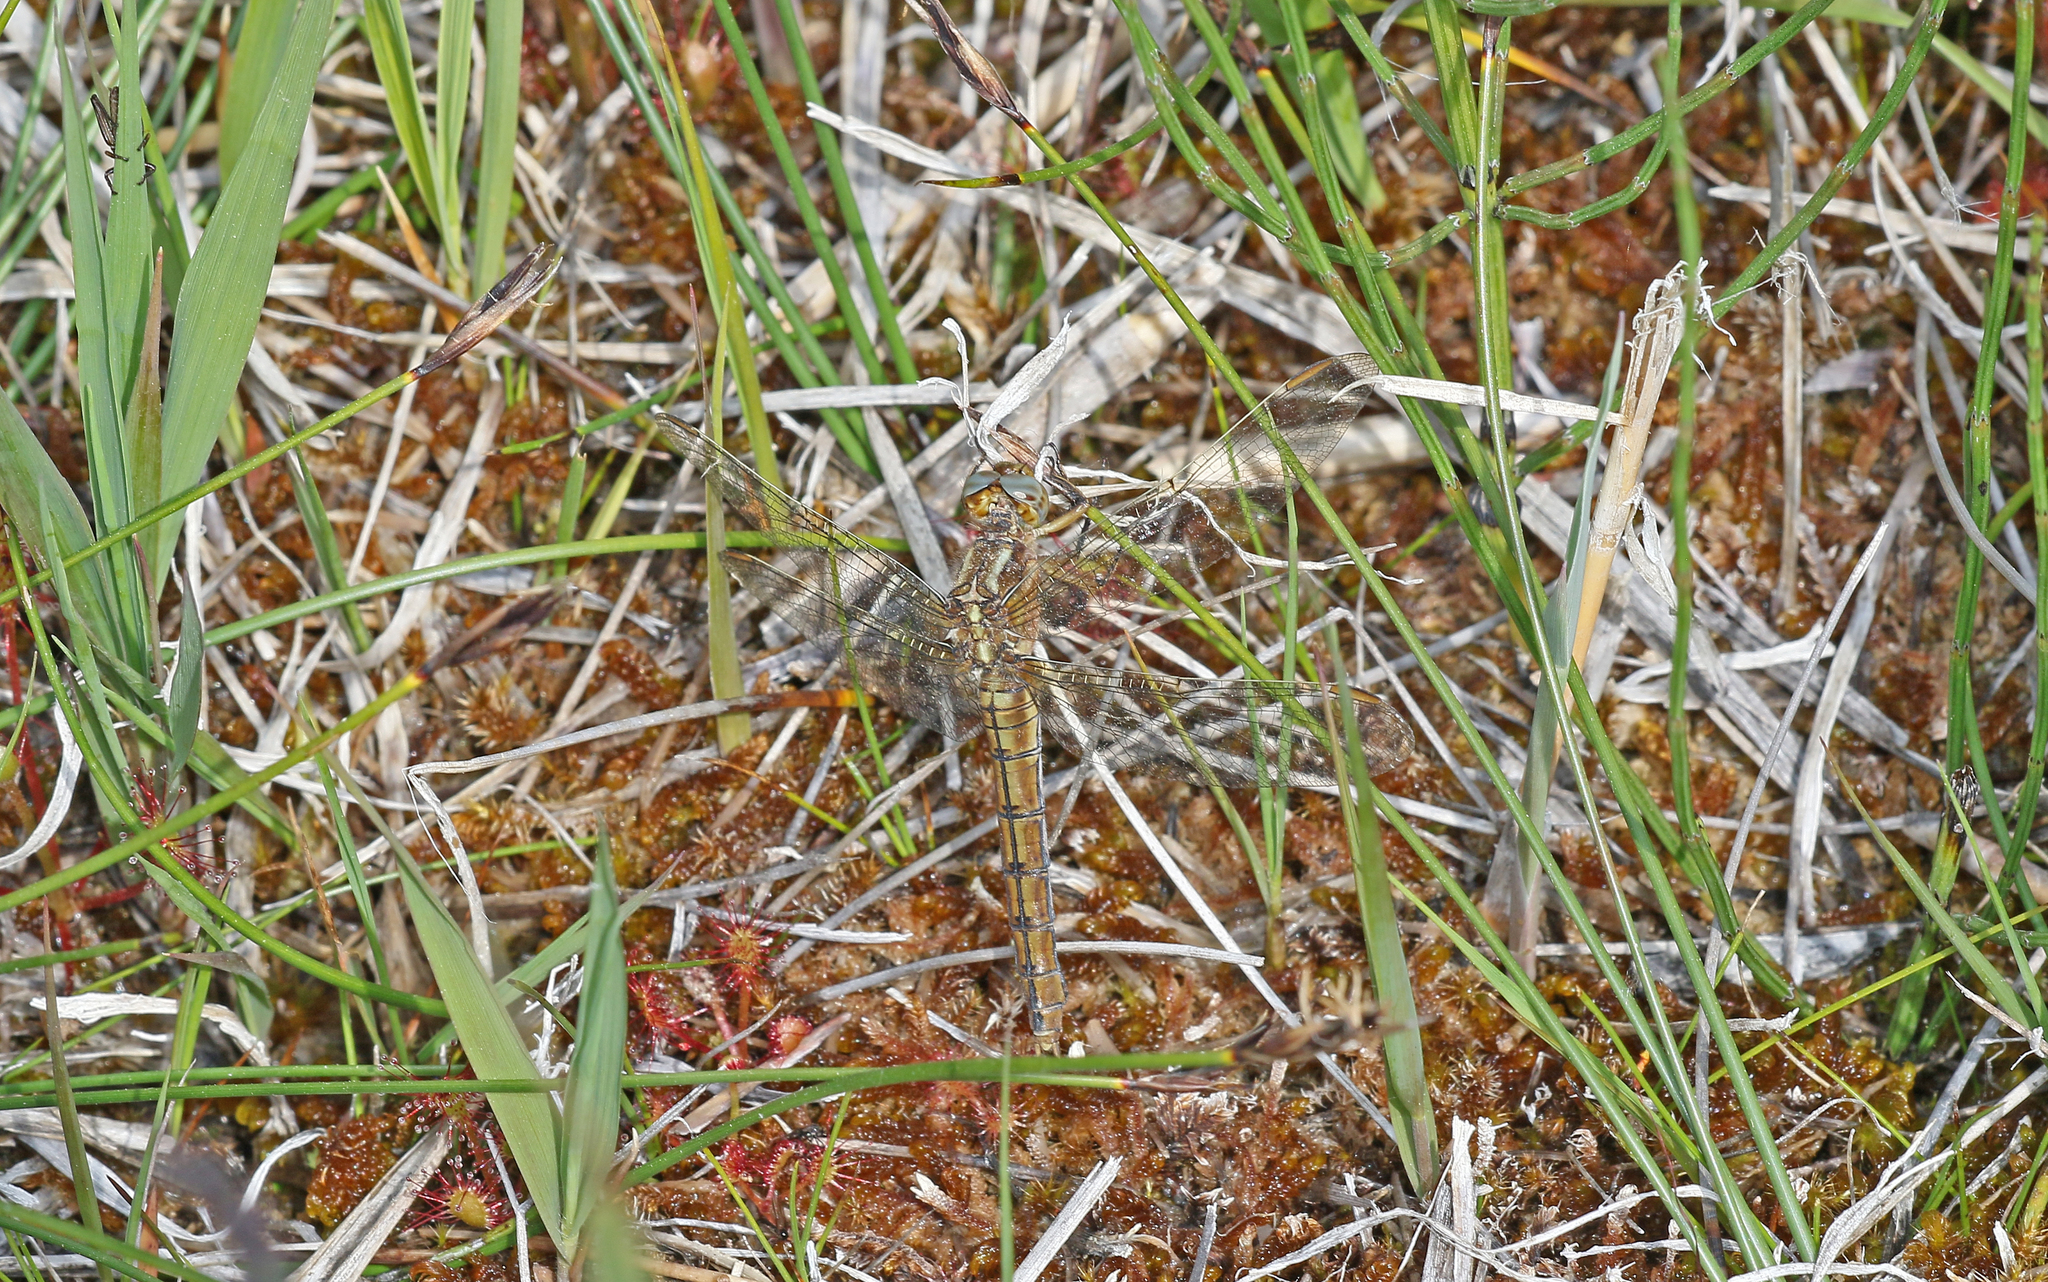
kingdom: Animalia
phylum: Arthropoda
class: Insecta
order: Odonata
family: Libellulidae
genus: Orthetrum
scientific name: Orthetrum coerulescens
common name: Keeled skimmer
